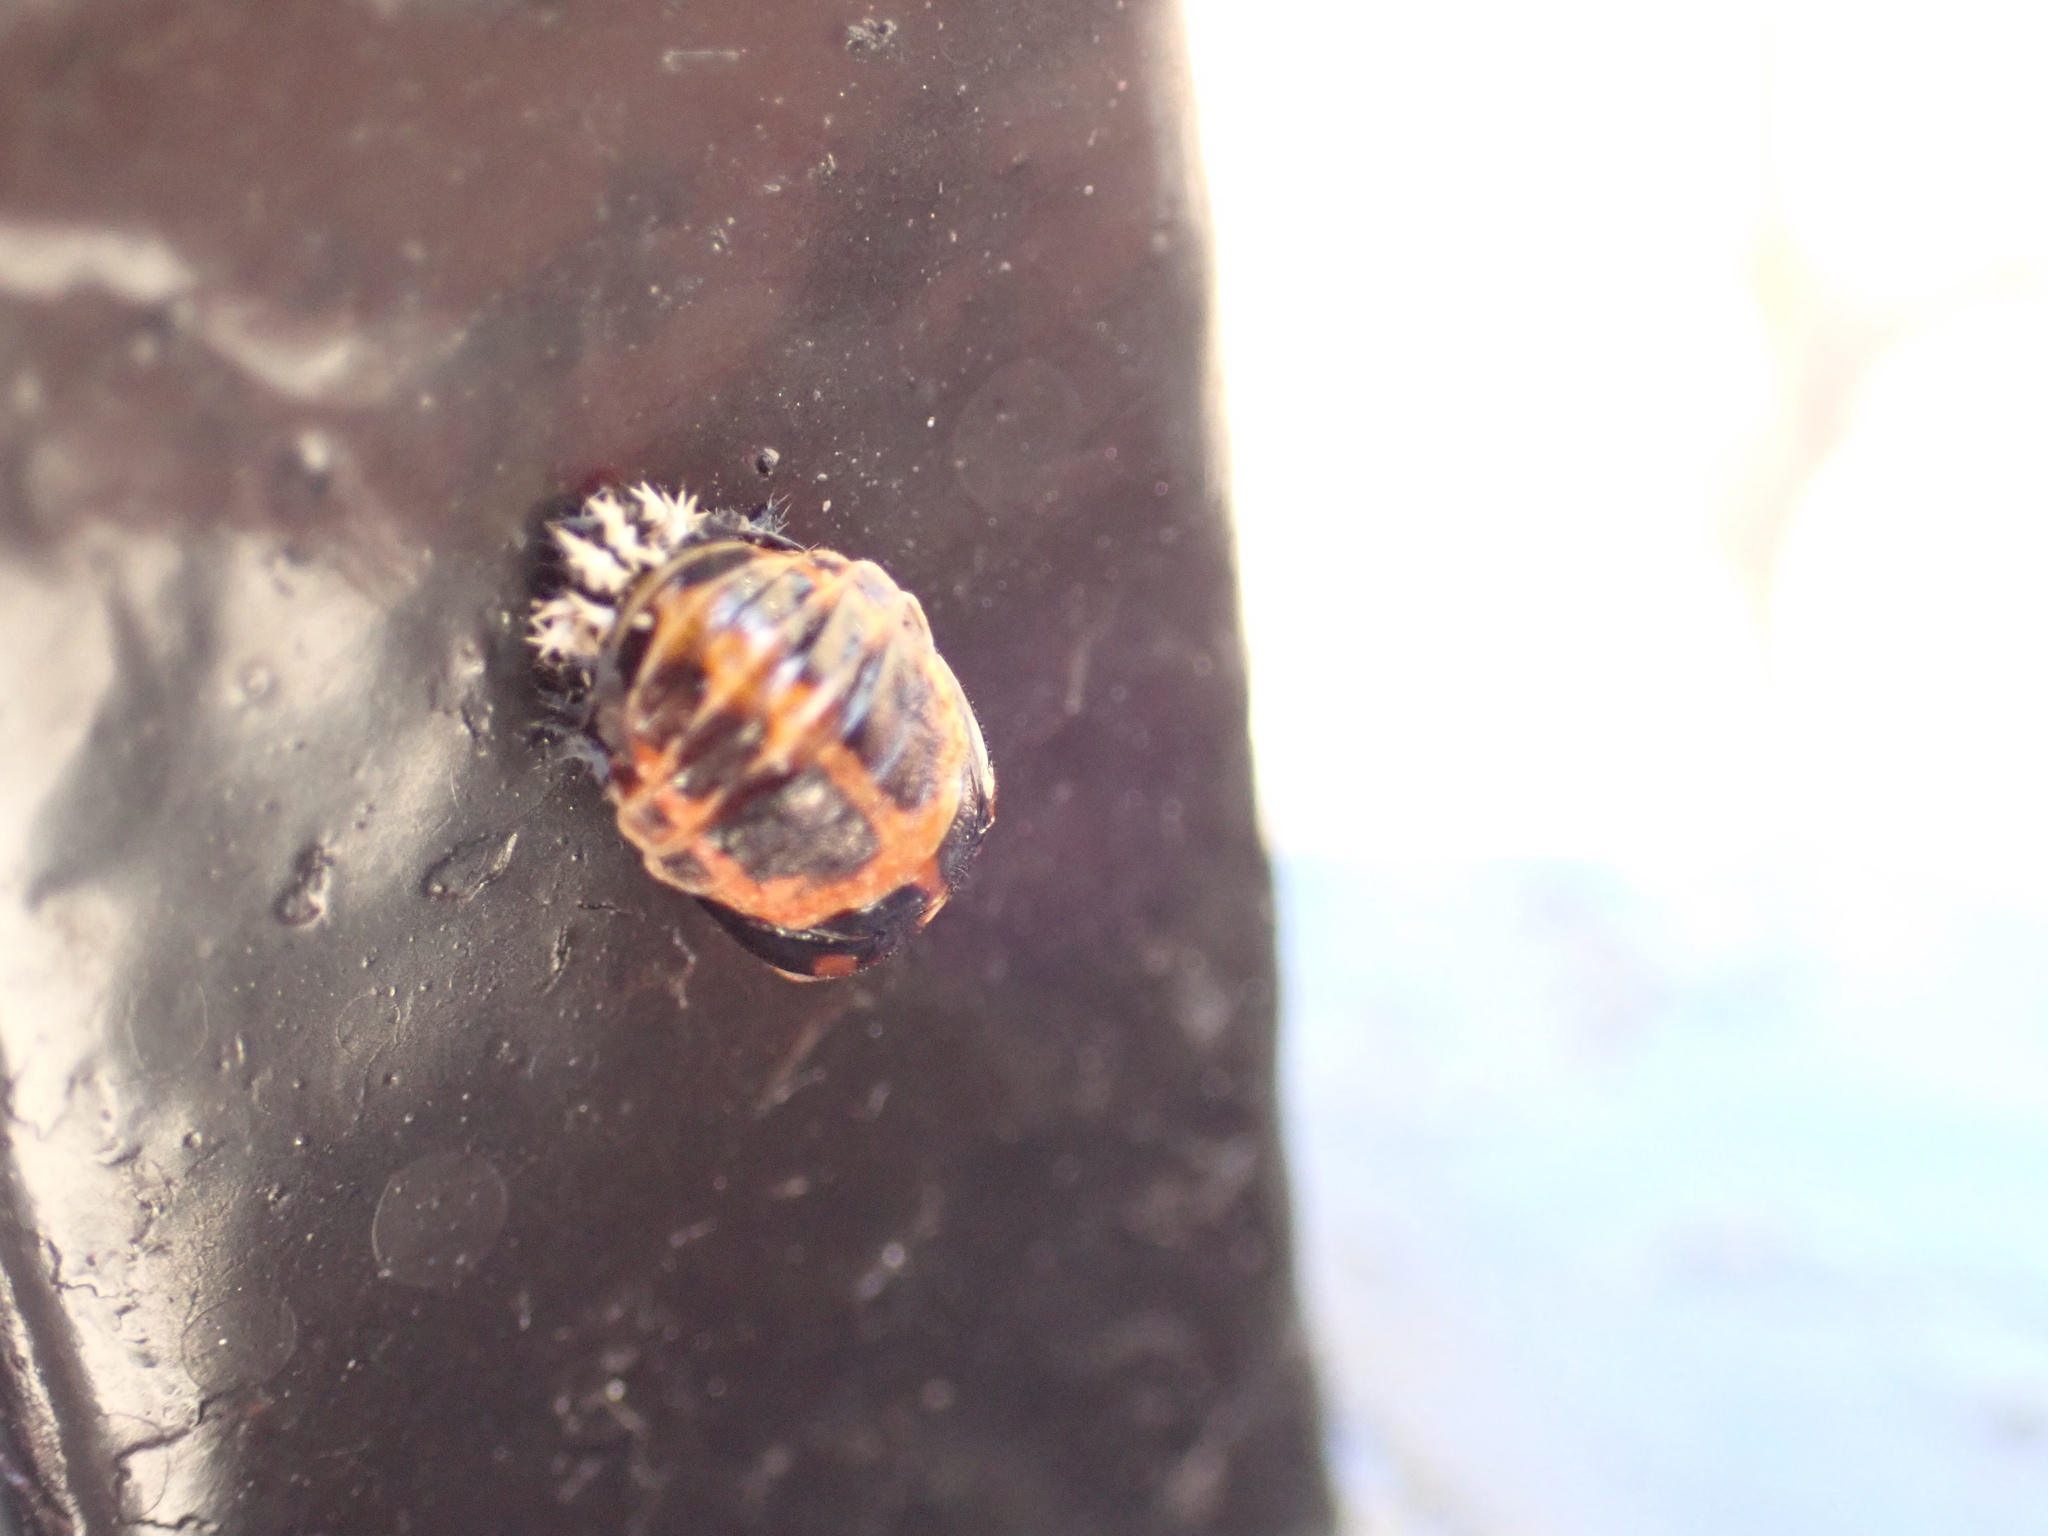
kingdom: Animalia
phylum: Arthropoda
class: Insecta
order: Coleoptera
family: Coccinellidae
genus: Harmonia
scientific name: Harmonia axyridis
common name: Harlequin ladybird
